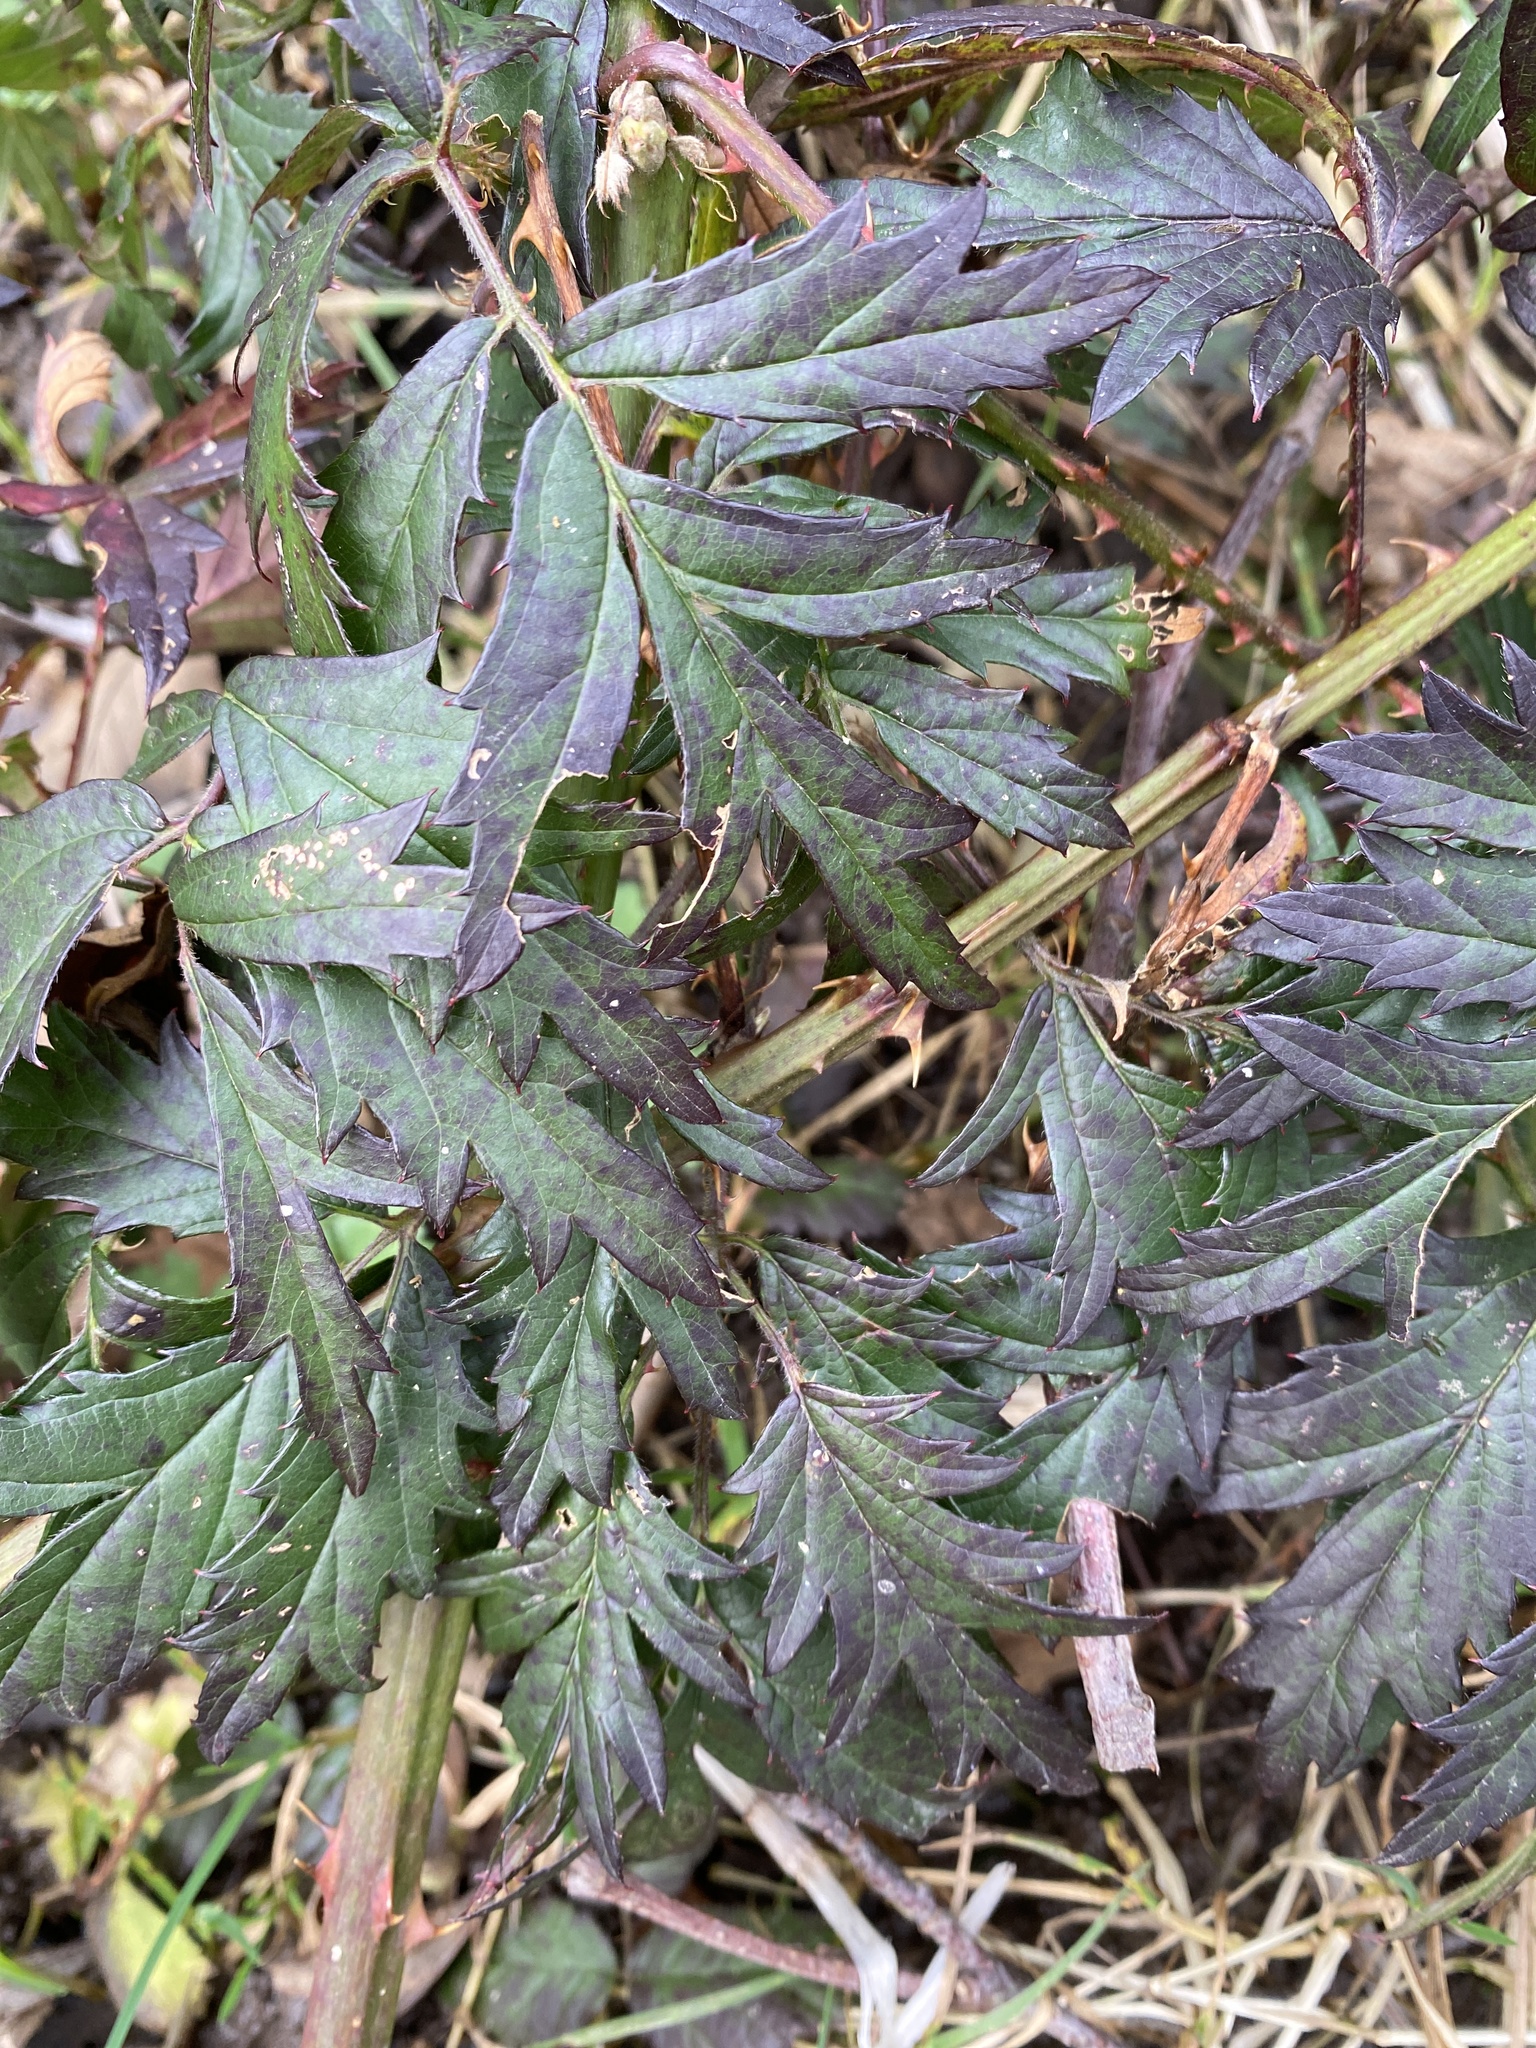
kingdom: Plantae
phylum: Tracheophyta
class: Magnoliopsida
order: Rosales
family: Rosaceae
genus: Rubus
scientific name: Rubus laciniatus
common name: Evergreen blackberry
